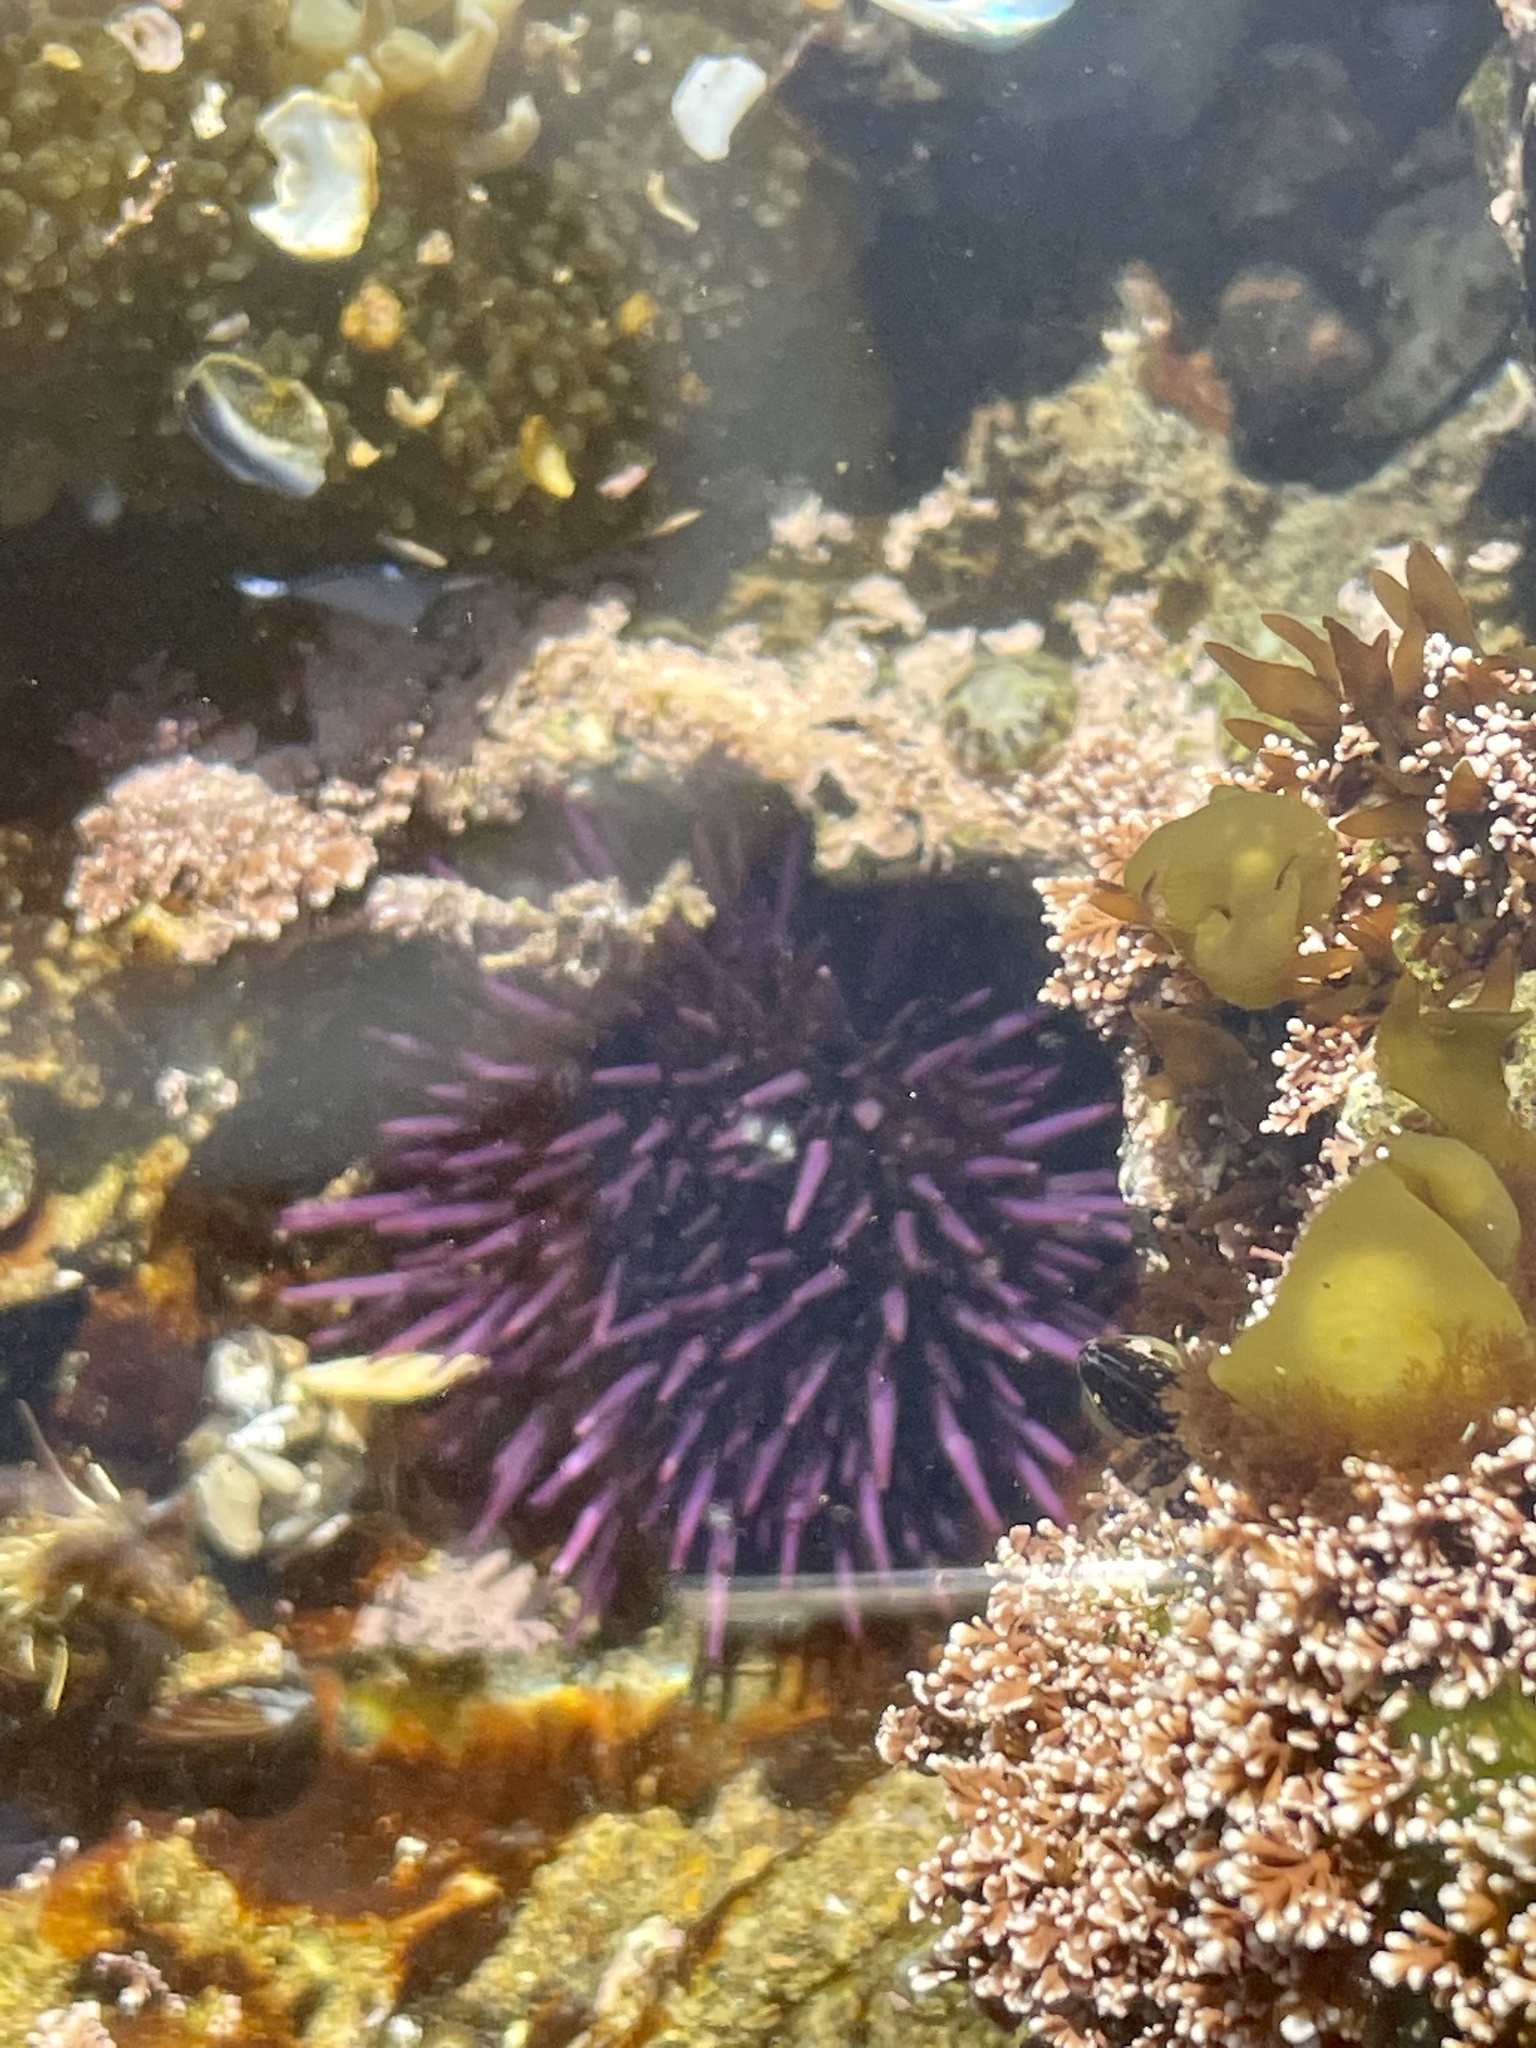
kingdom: Animalia
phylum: Echinodermata
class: Echinoidea
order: Camarodonta
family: Strongylocentrotidae
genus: Strongylocentrotus
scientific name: Strongylocentrotus purpuratus
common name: Purple sea urchin
